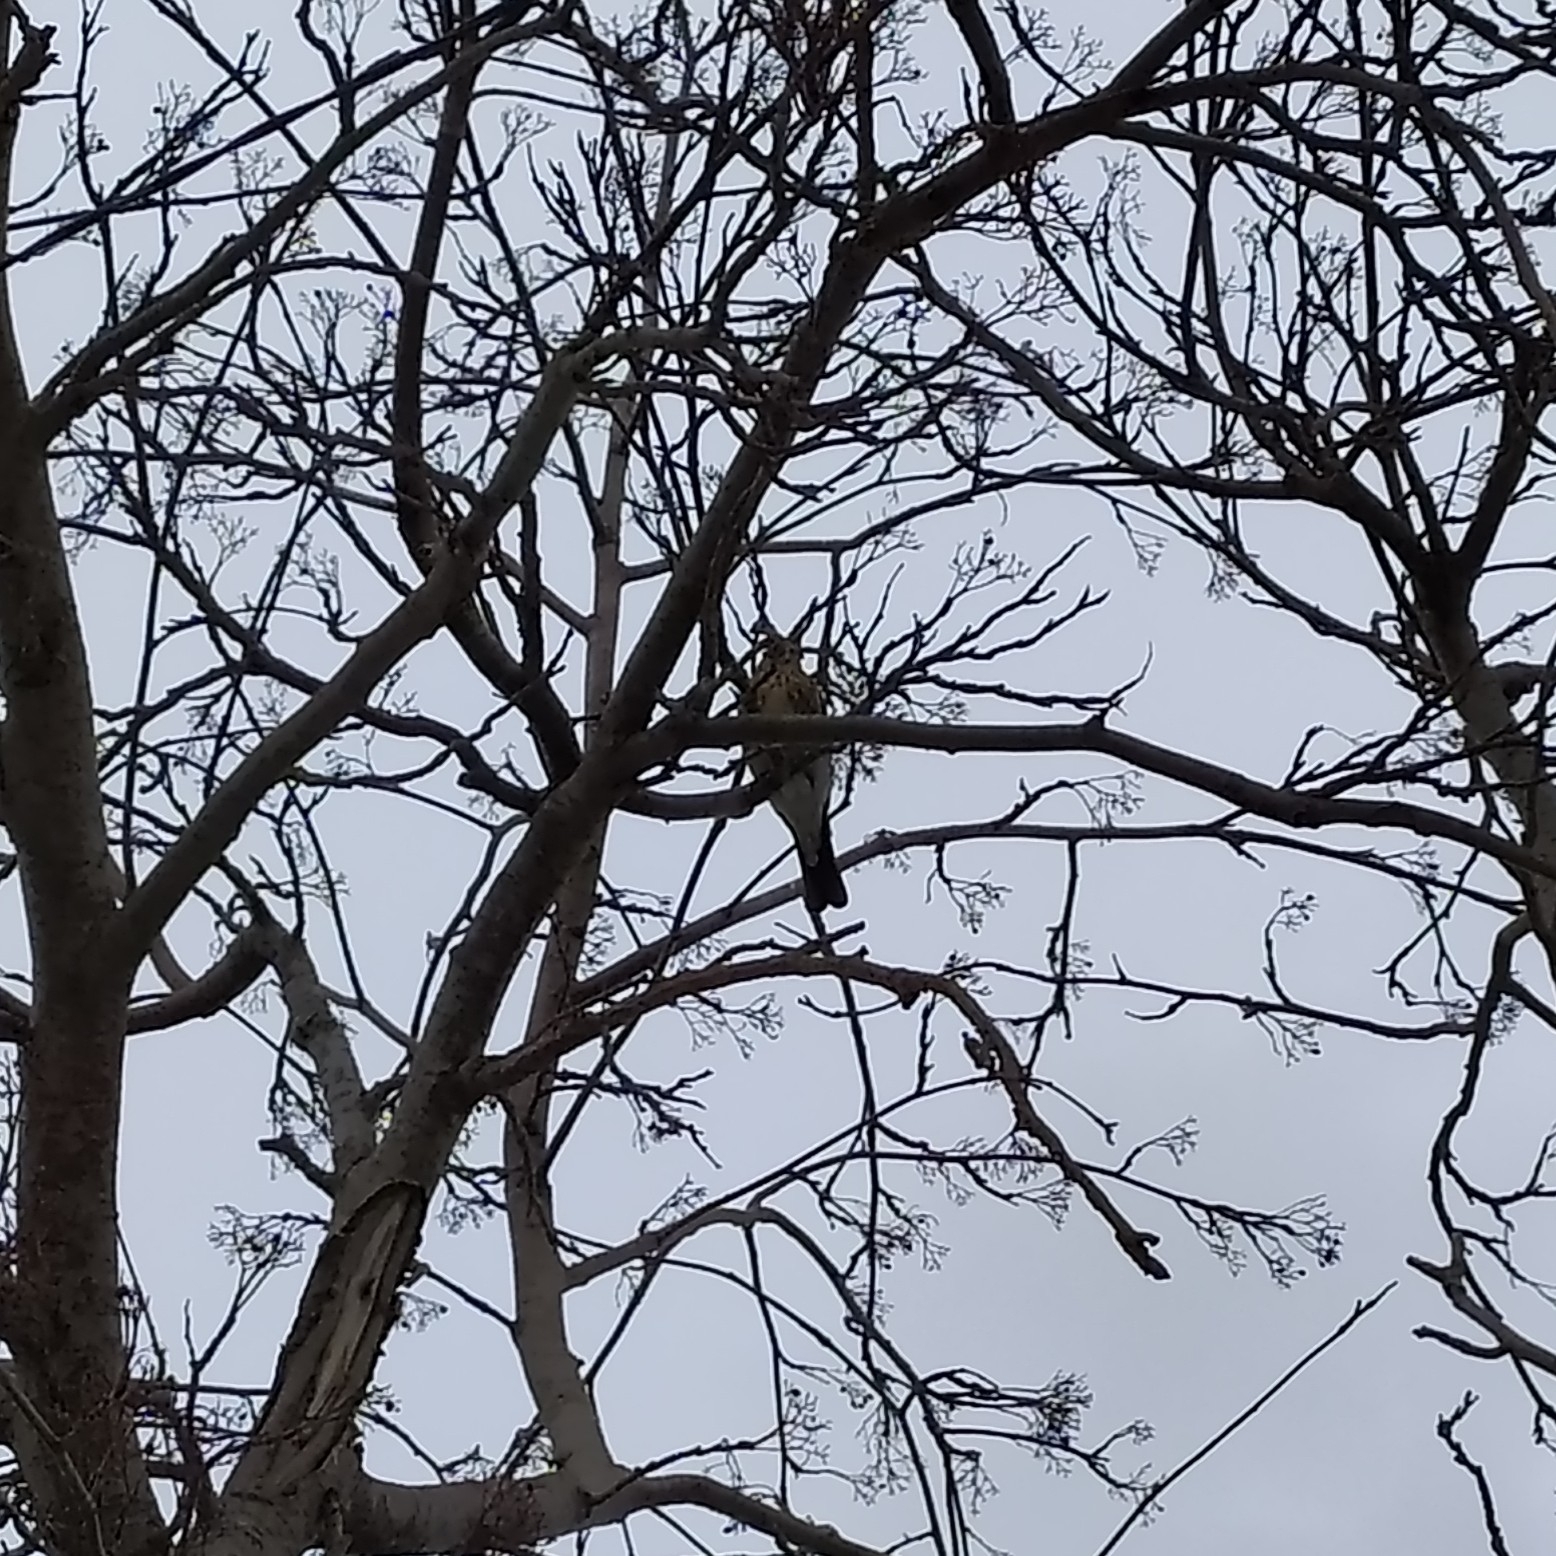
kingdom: Animalia
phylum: Chordata
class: Aves
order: Passeriformes
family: Turdidae
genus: Turdus
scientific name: Turdus pilaris
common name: Fieldfare
